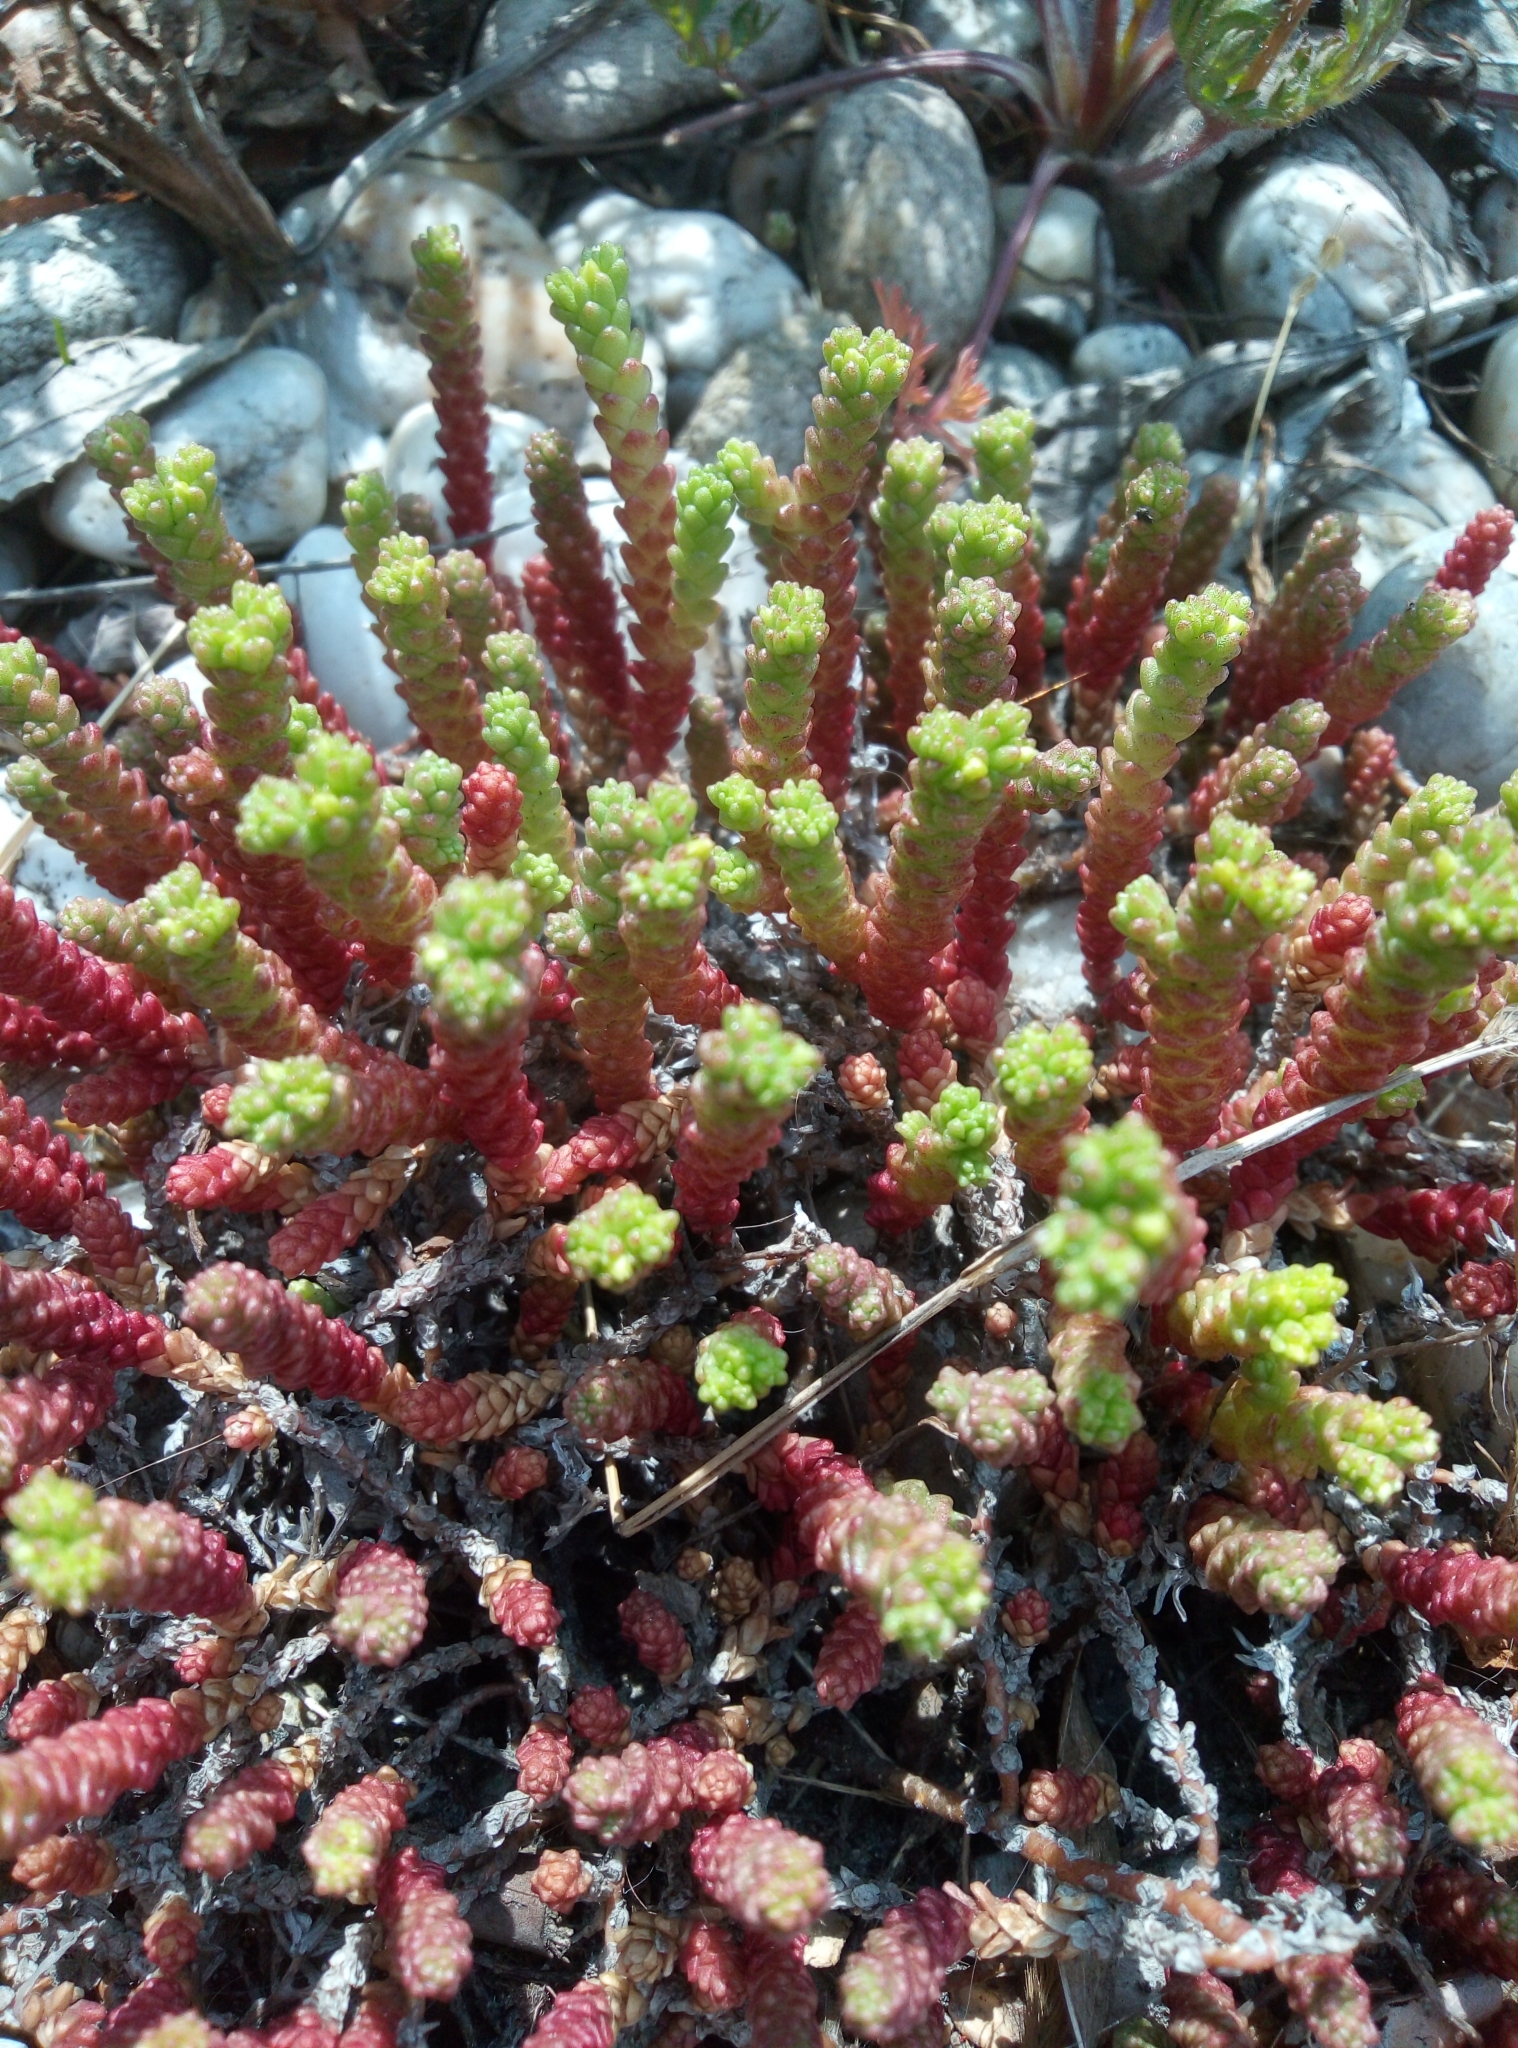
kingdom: Plantae
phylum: Tracheophyta
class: Magnoliopsida
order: Saxifragales
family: Crassulaceae
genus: Sedum
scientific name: Sedum acre
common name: Biting stonecrop
